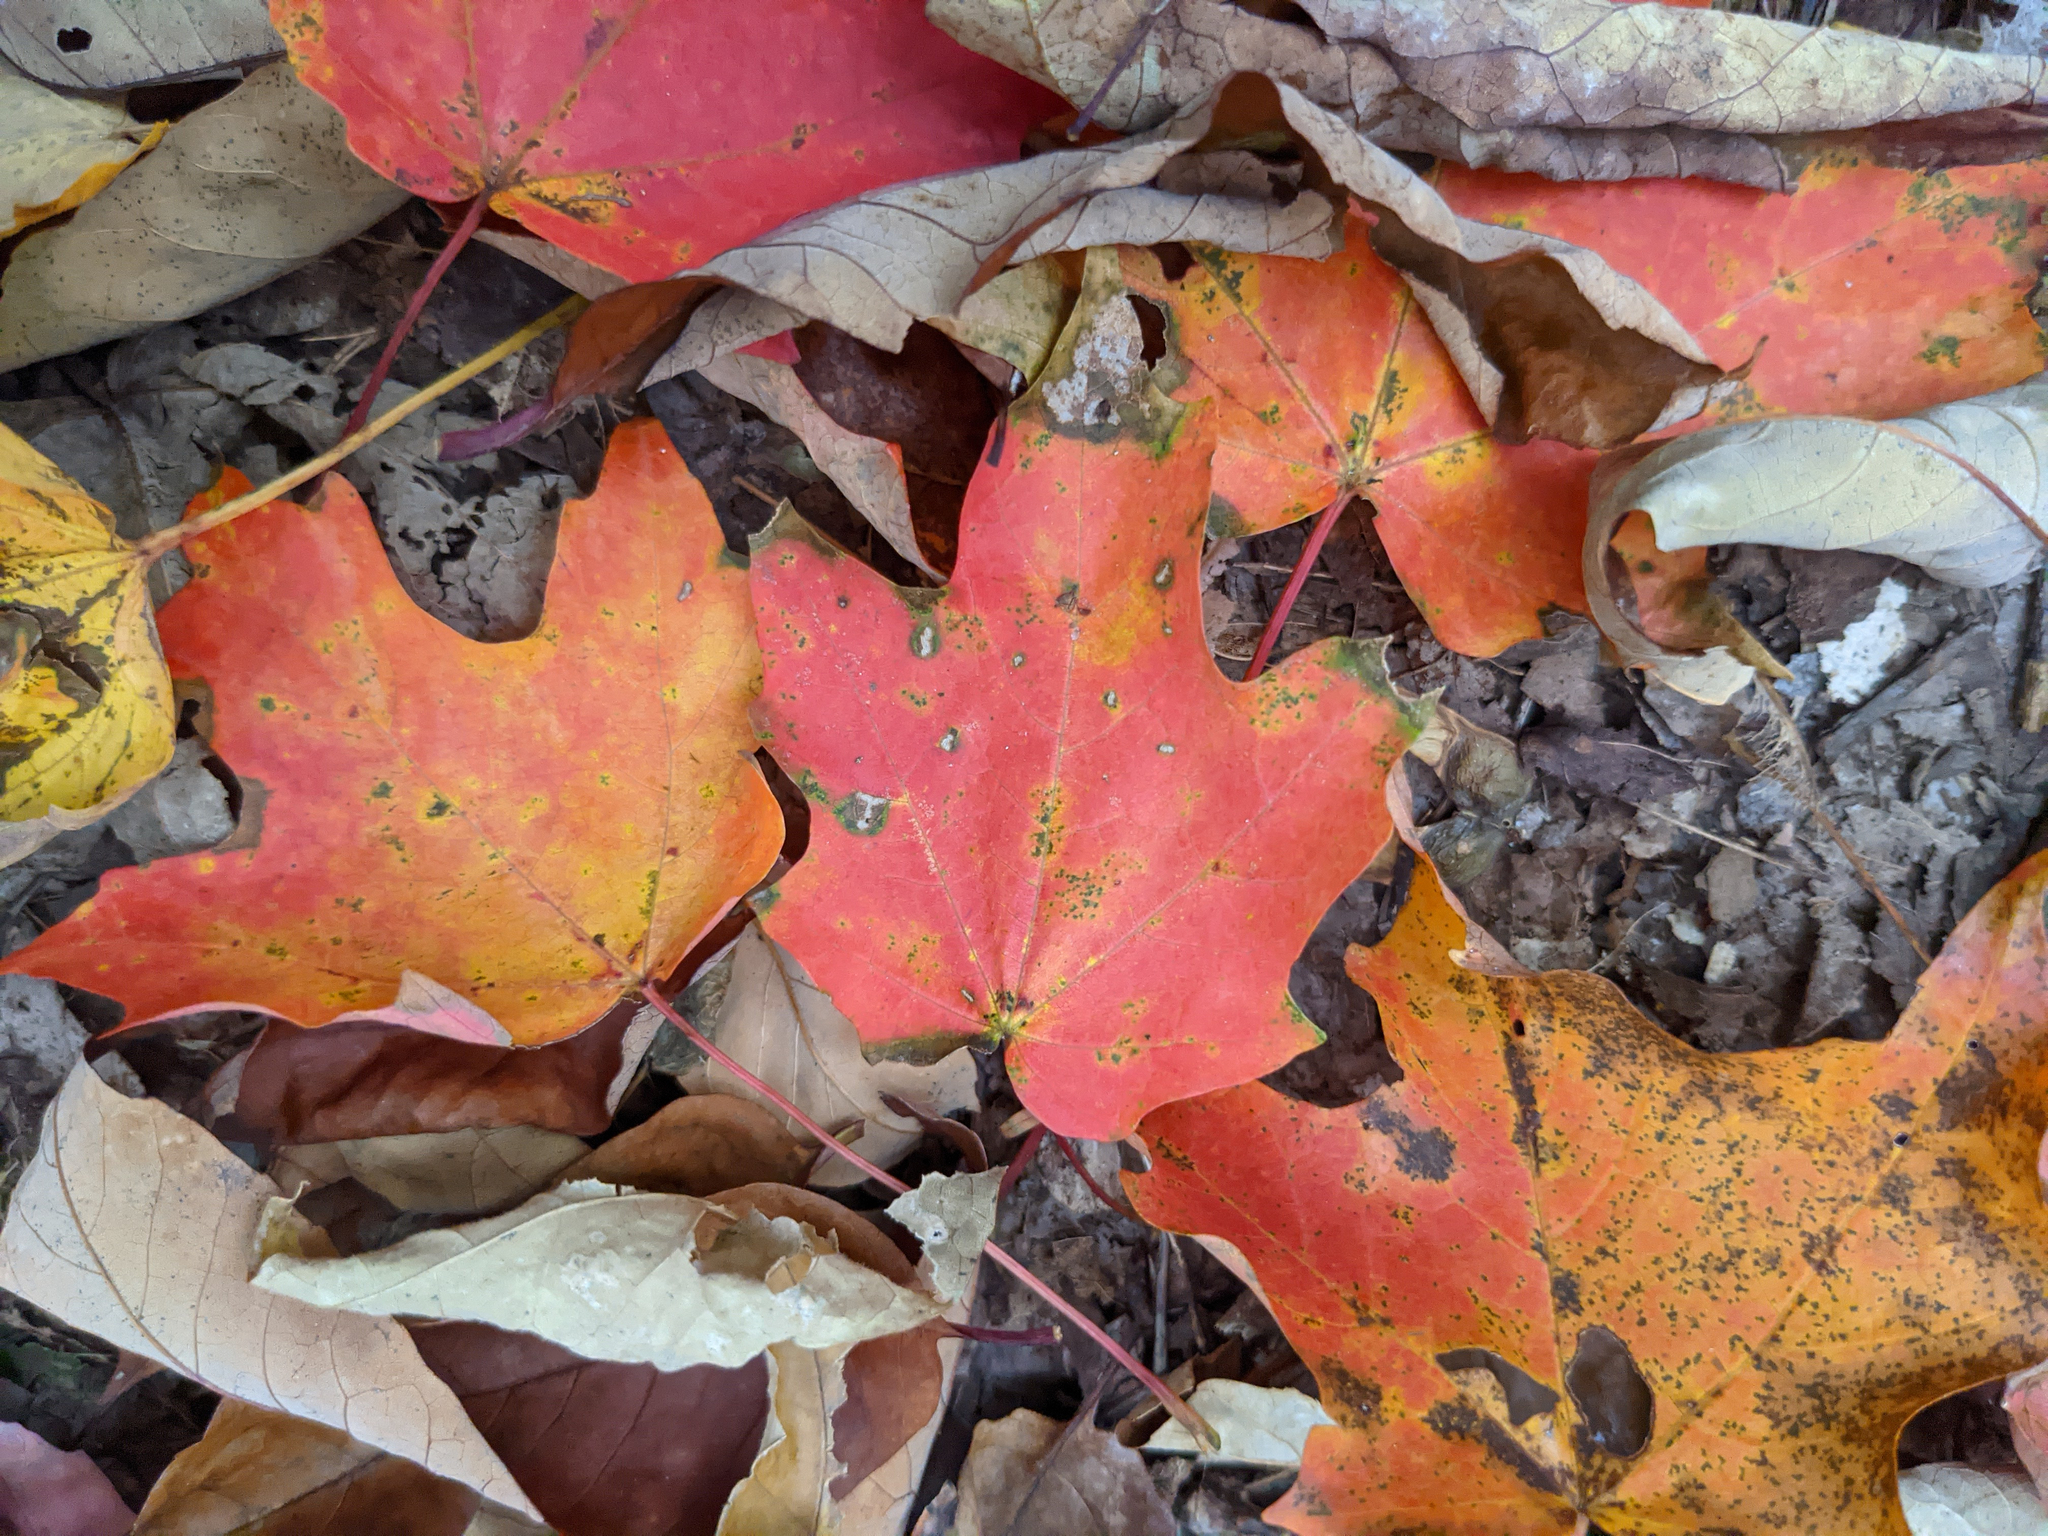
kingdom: Plantae
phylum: Tracheophyta
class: Magnoliopsida
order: Sapindales
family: Sapindaceae
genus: Acer
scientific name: Acer saccharum
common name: Sugar maple
